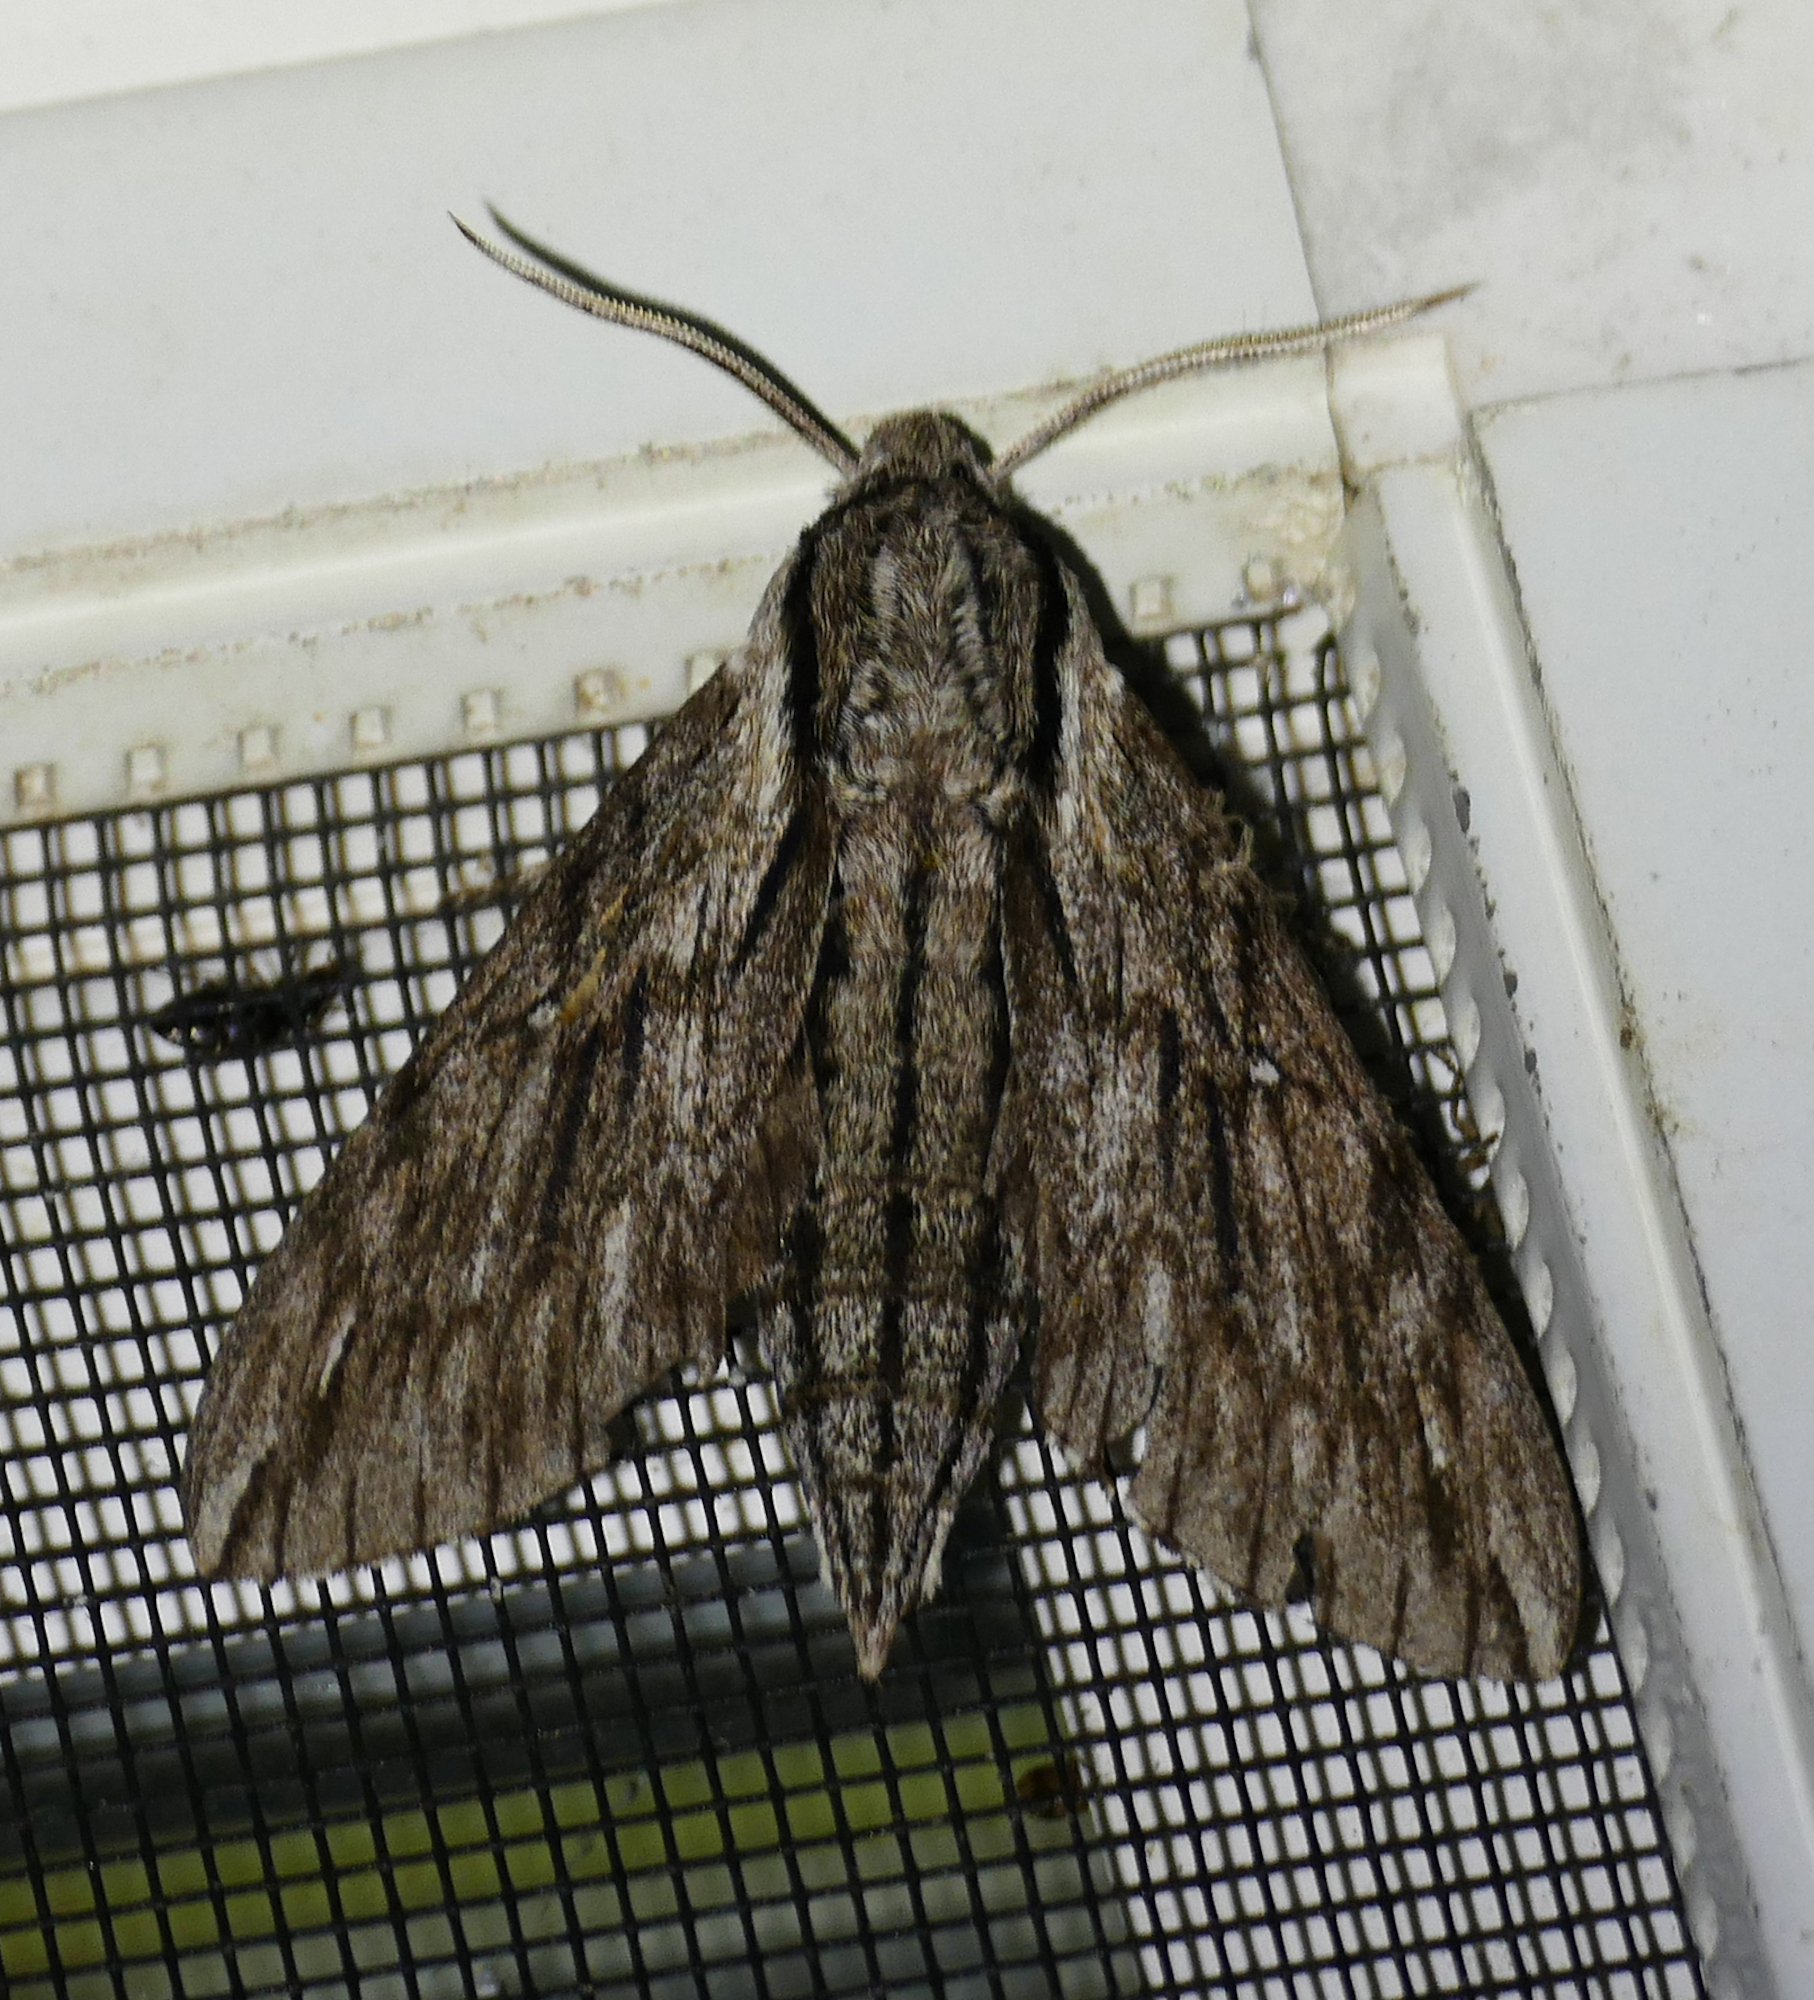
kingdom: Animalia
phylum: Arthropoda
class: Insecta
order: Lepidoptera
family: Sphingidae
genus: Paratrea
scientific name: Paratrea plebeja
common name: Plebian sphinx
